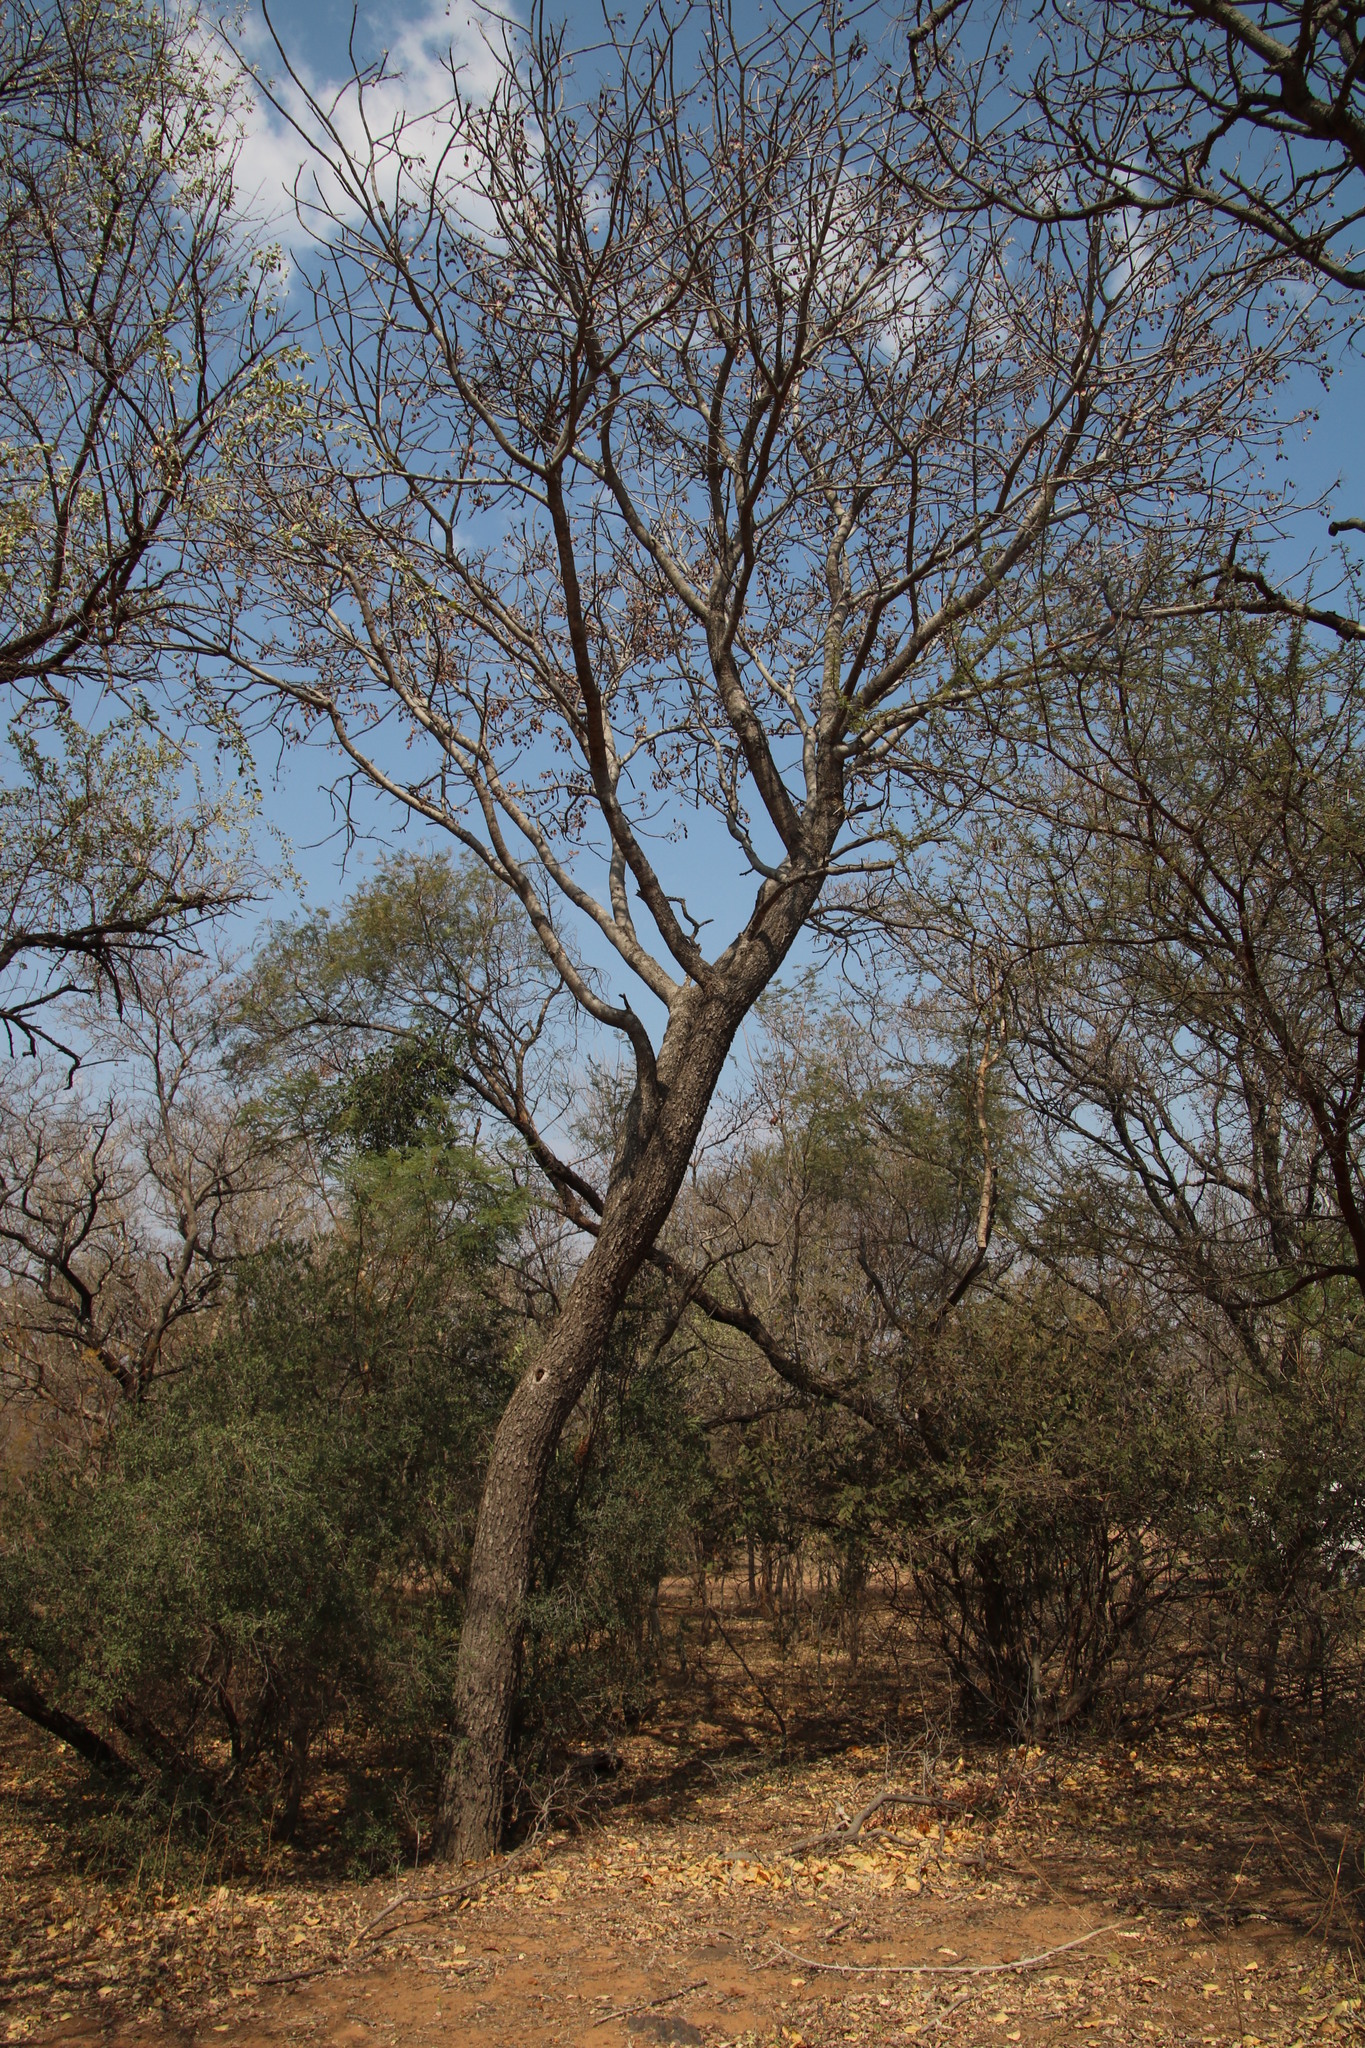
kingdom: Plantae
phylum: Tracheophyta
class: Magnoliopsida
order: Fabales
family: Fabaceae
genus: Burkea
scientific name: Burkea africana
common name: Mkalati tree
